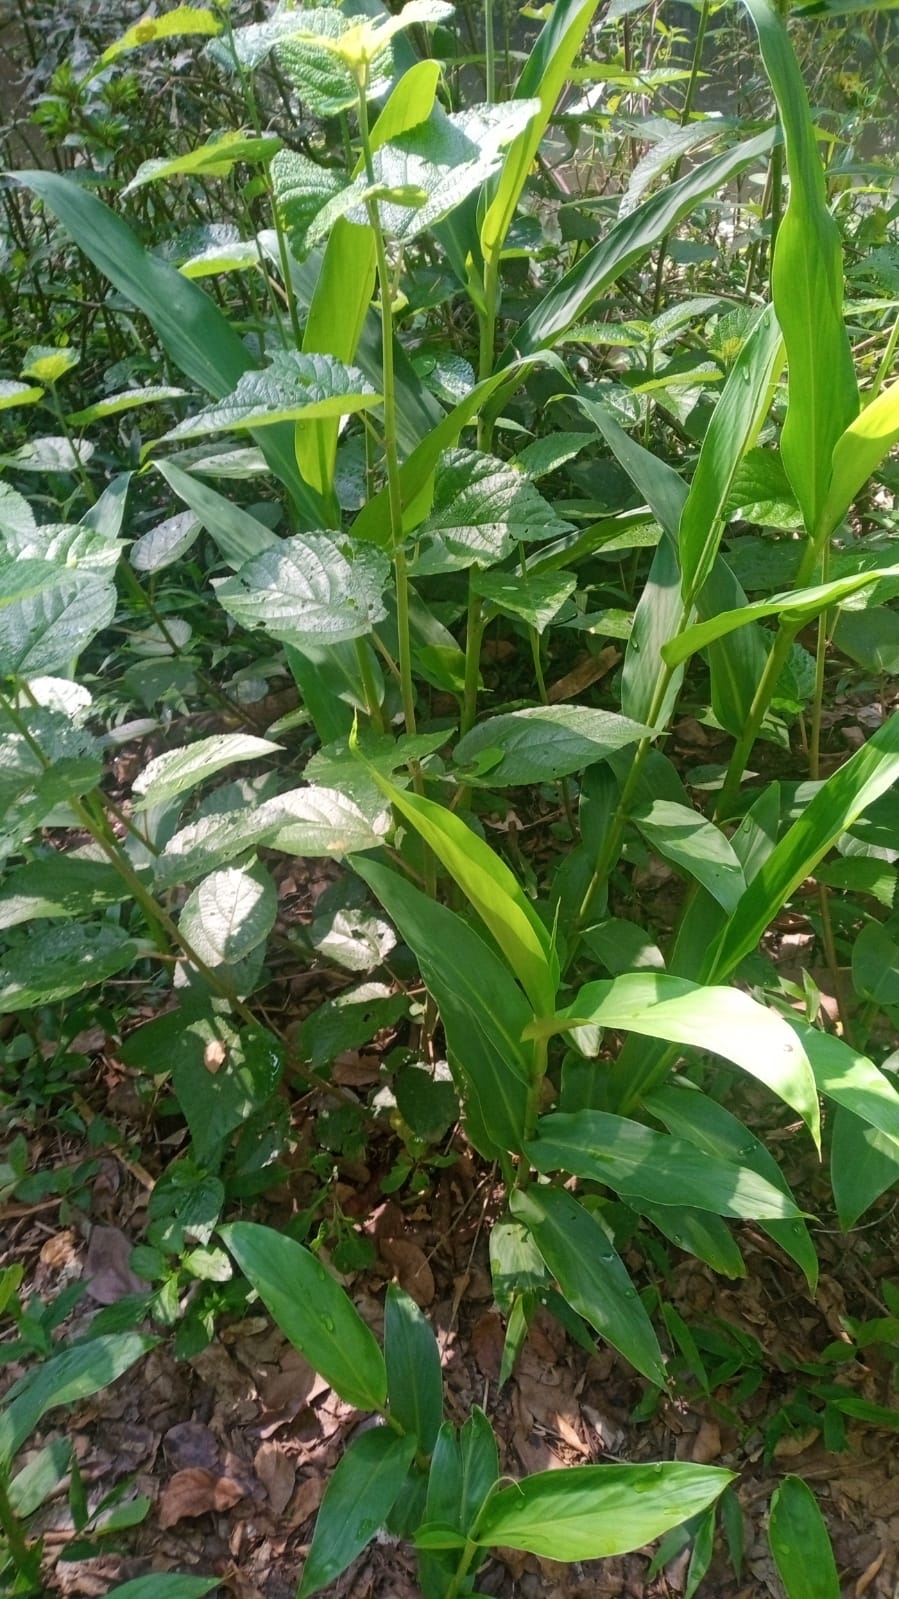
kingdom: Plantae
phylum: Tracheophyta
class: Liliopsida
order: Zingiberales
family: Zingiberaceae
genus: Hedychium
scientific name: Hedychium coronarium
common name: White garland-lily
